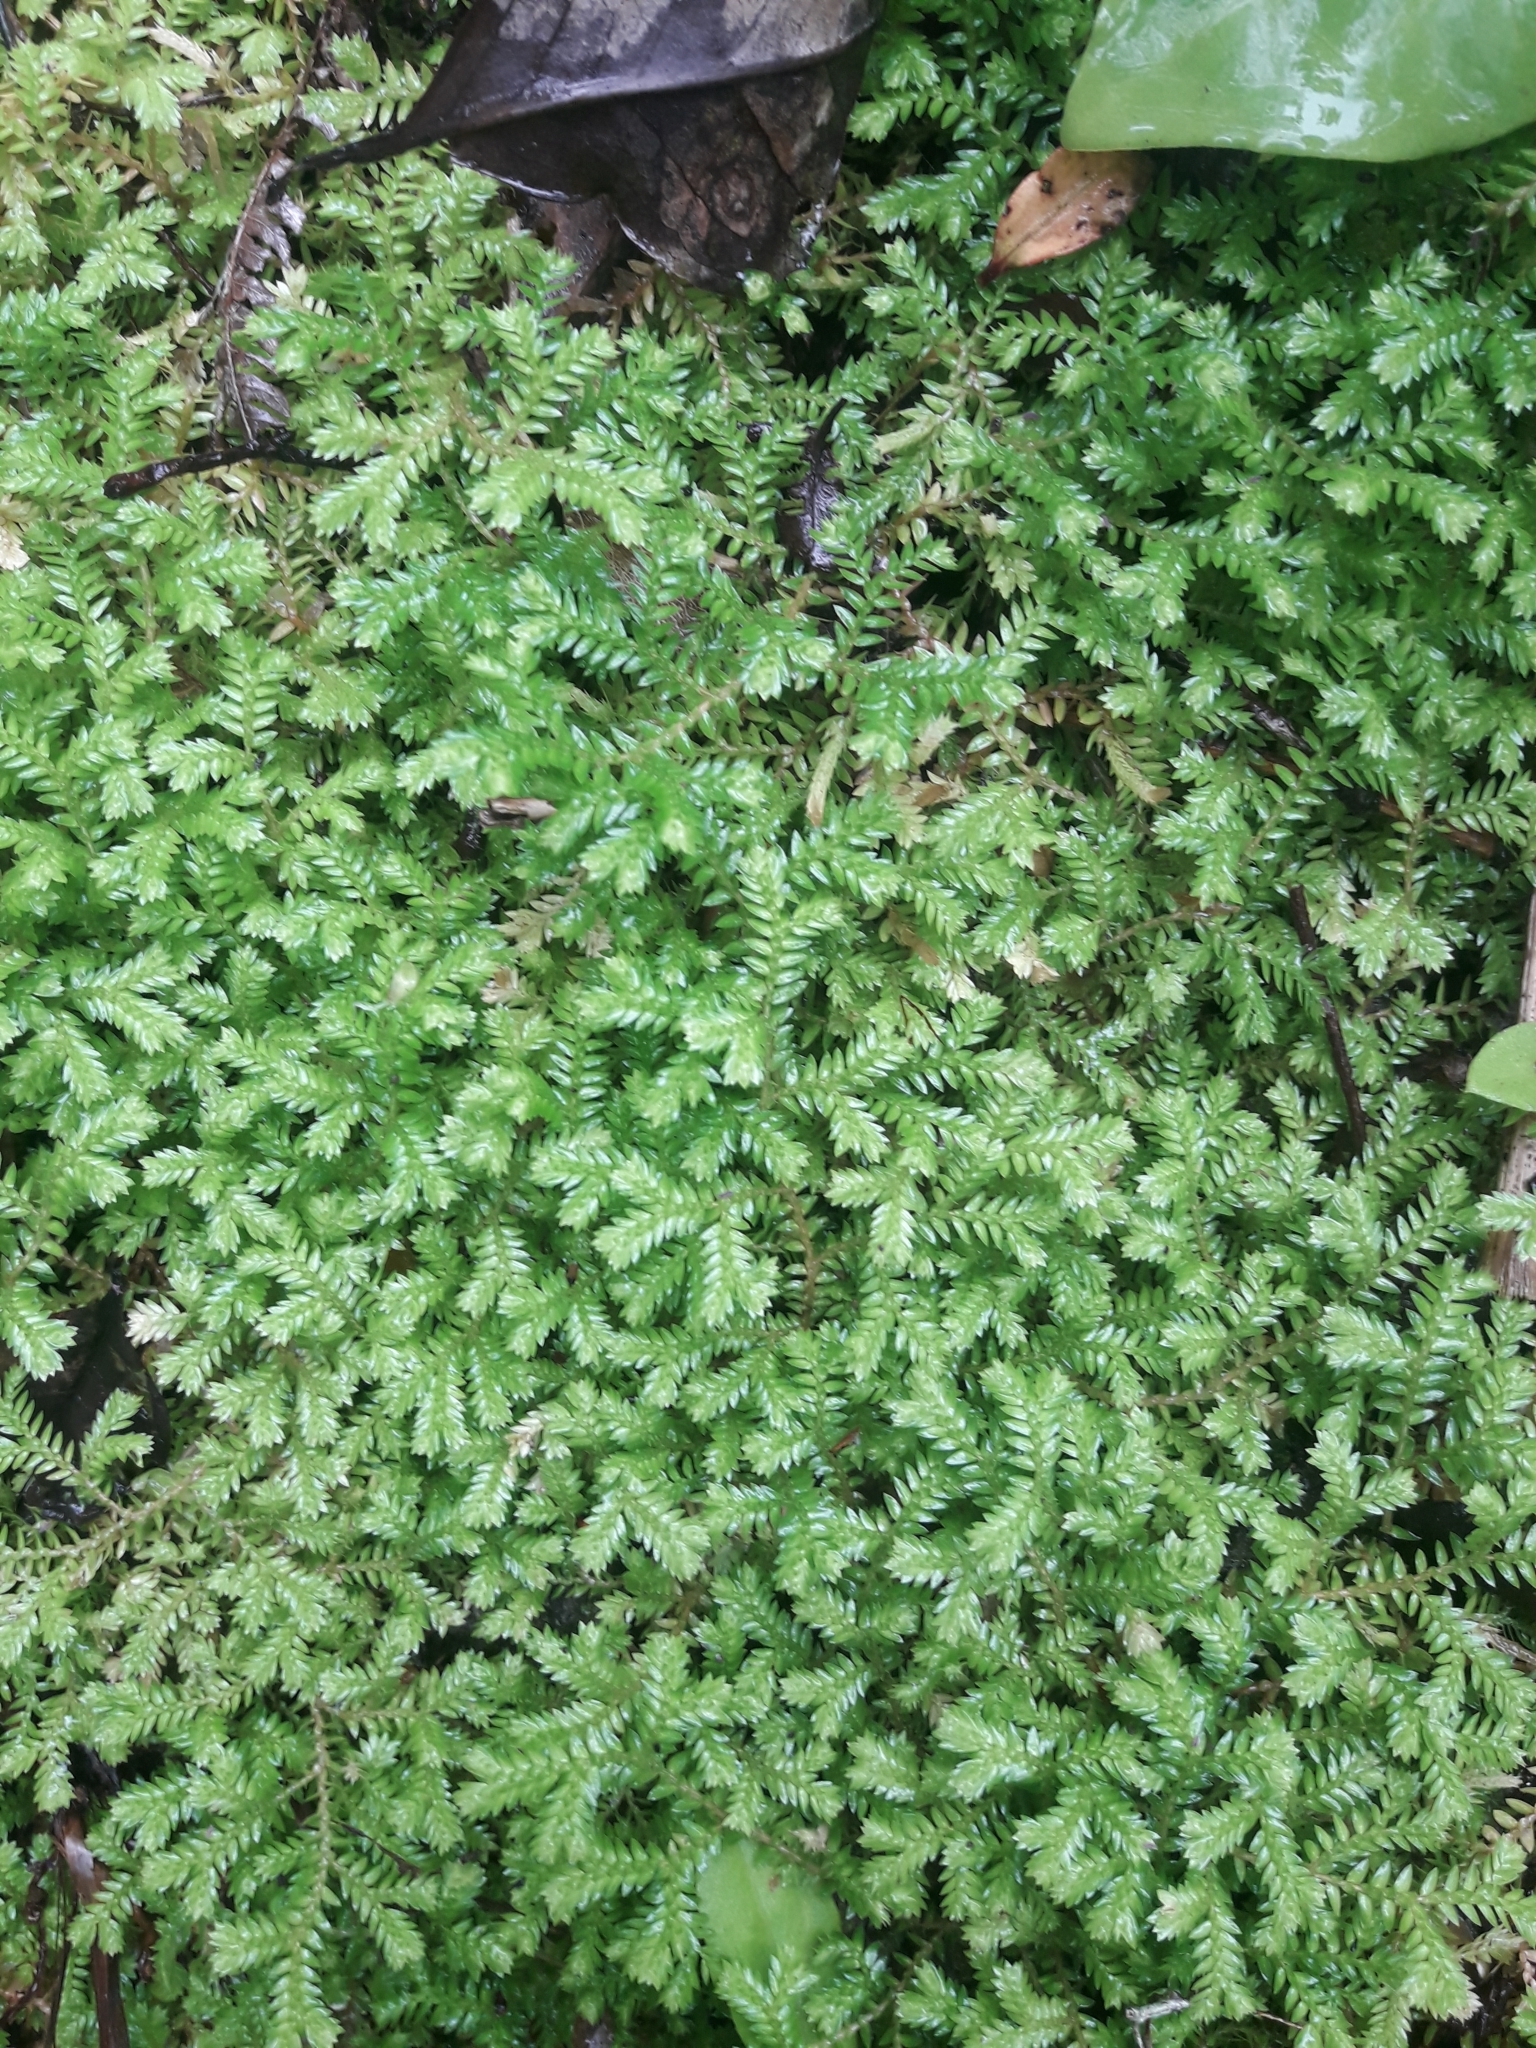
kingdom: Plantae
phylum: Tracheophyta
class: Lycopodiopsida
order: Selaginellales
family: Selaginellaceae
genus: Selaginella
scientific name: Selaginella kraussiana
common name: Krauss' spikemoss
